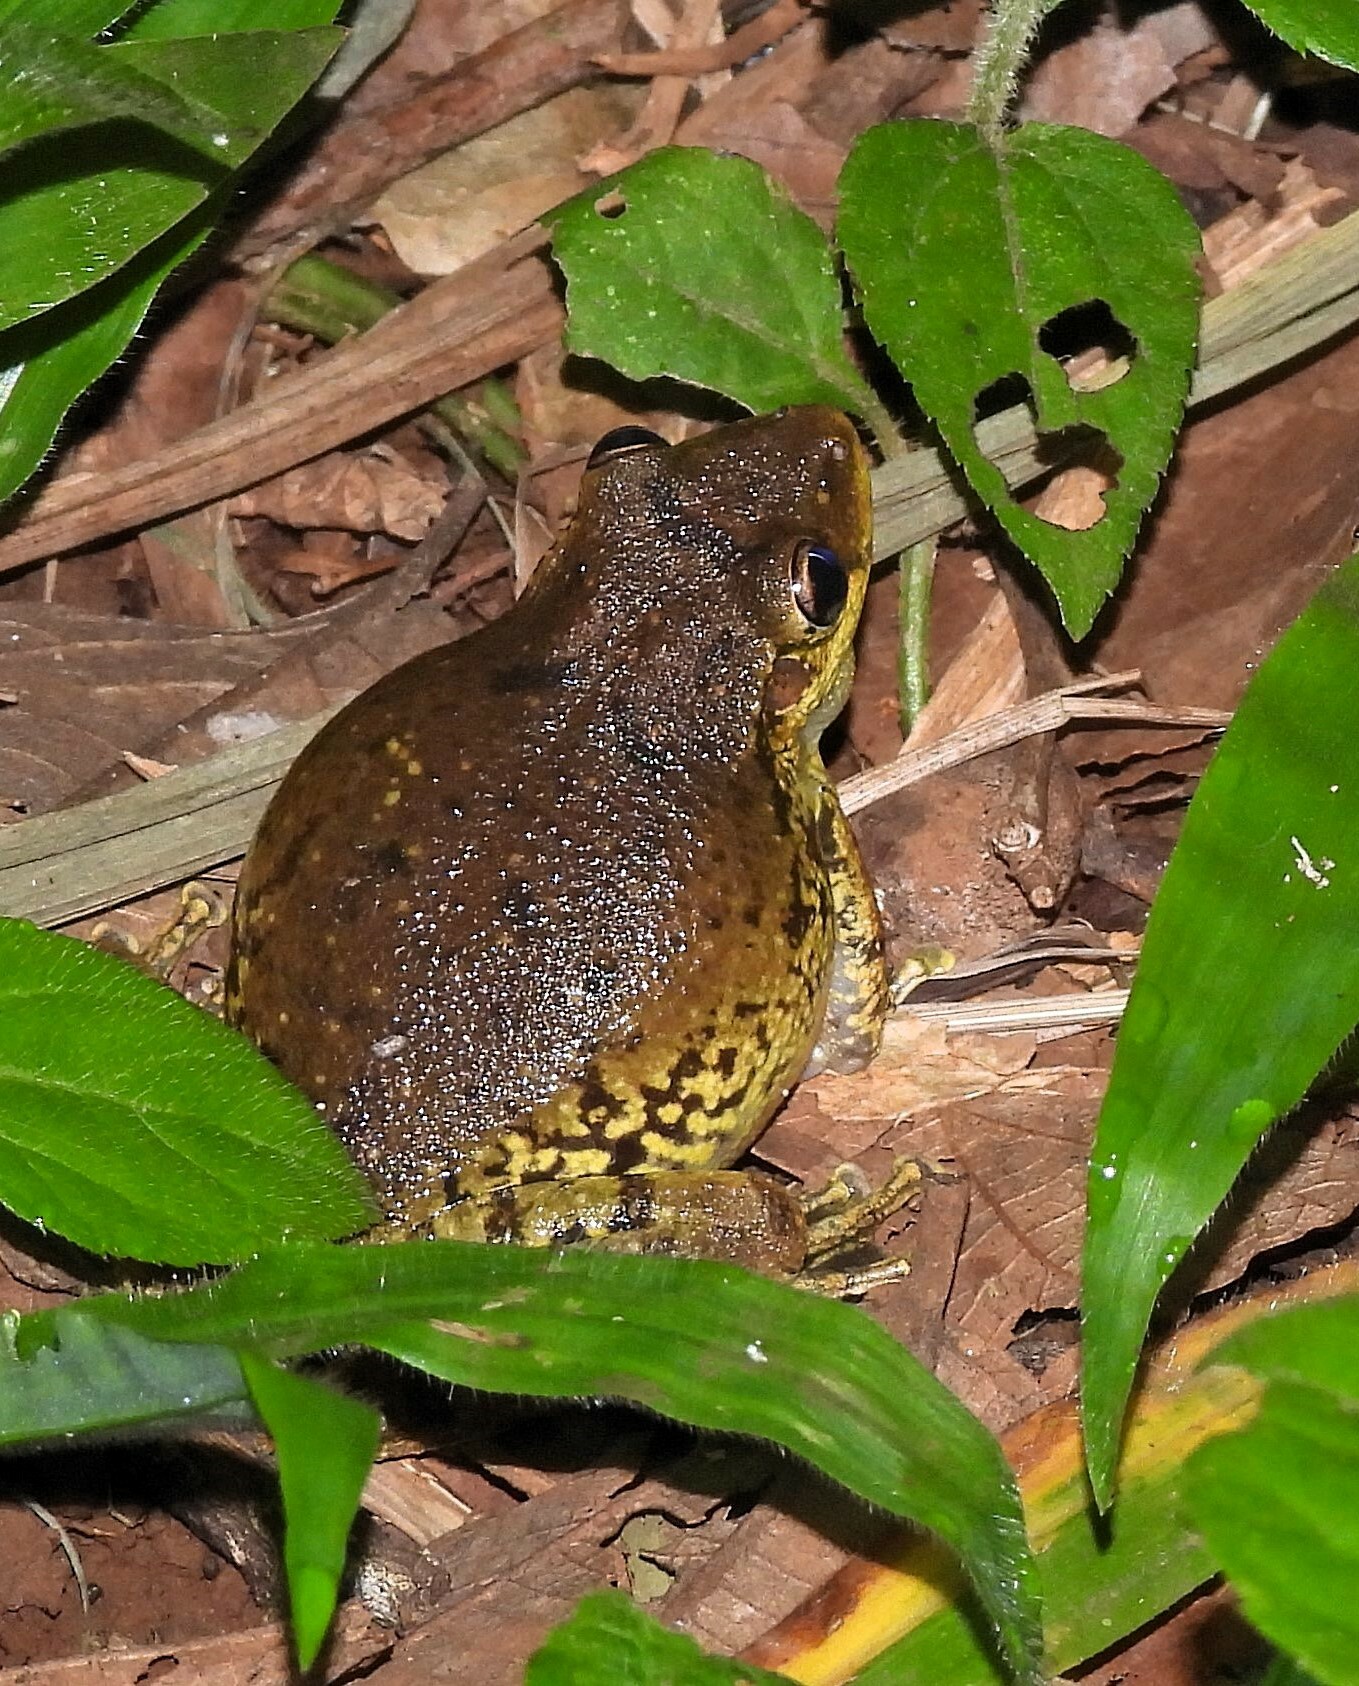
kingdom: Animalia
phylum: Chordata
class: Amphibia
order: Anura
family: Hylidae
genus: Scinax
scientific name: Scinax fuscovarius
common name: Fuscous-blotched treefrog
